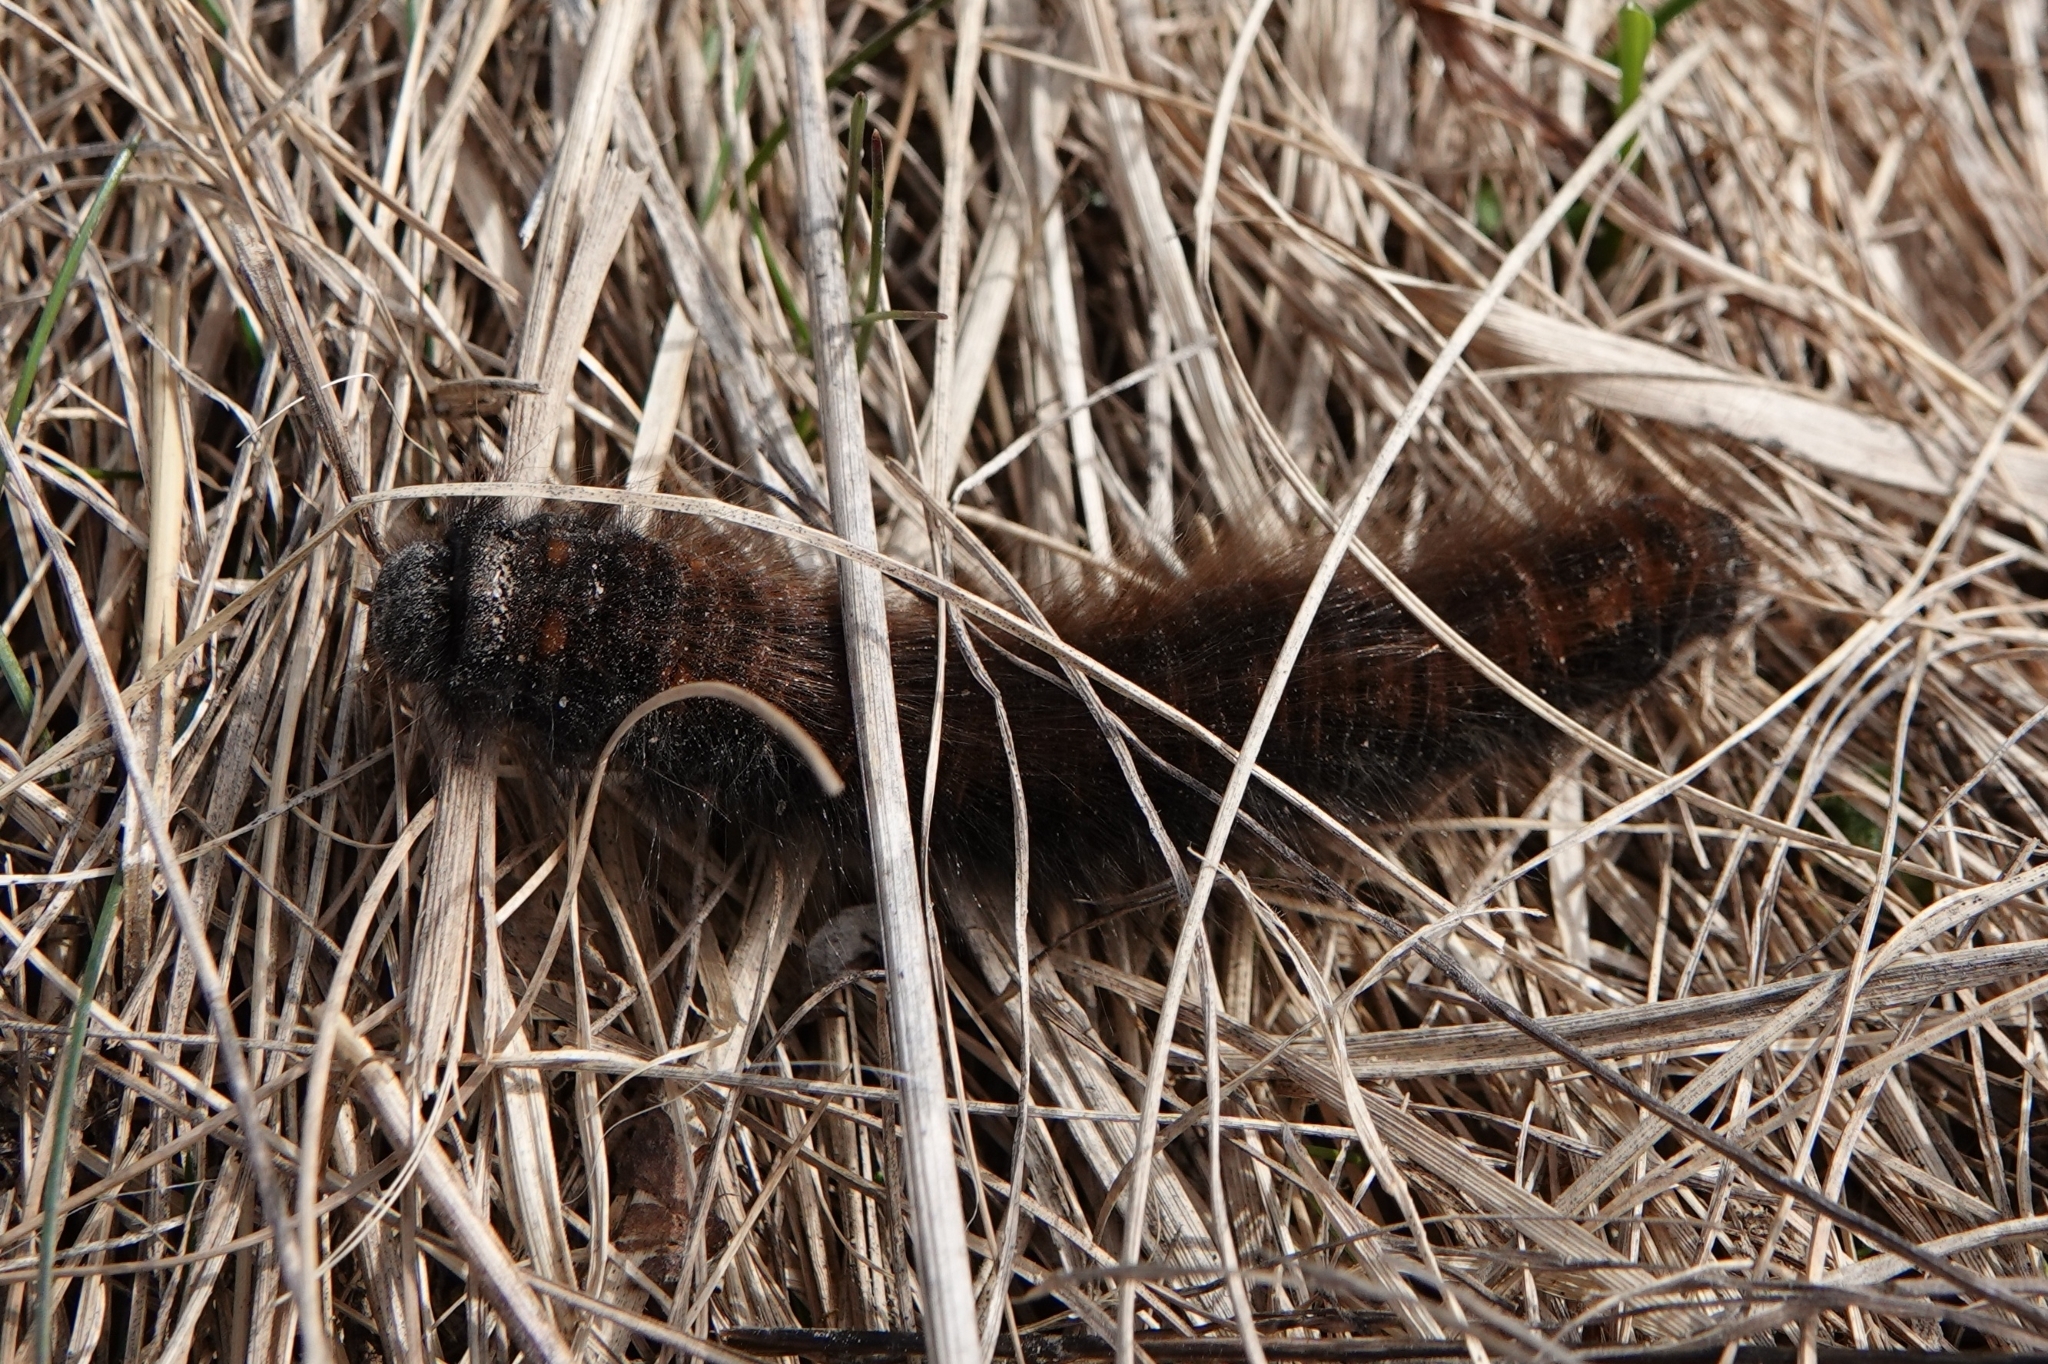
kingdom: Animalia
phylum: Arthropoda
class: Insecta
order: Lepidoptera
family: Lasiocampidae
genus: Macrothylacia
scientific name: Macrothylacia rubi
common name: Fox moth
